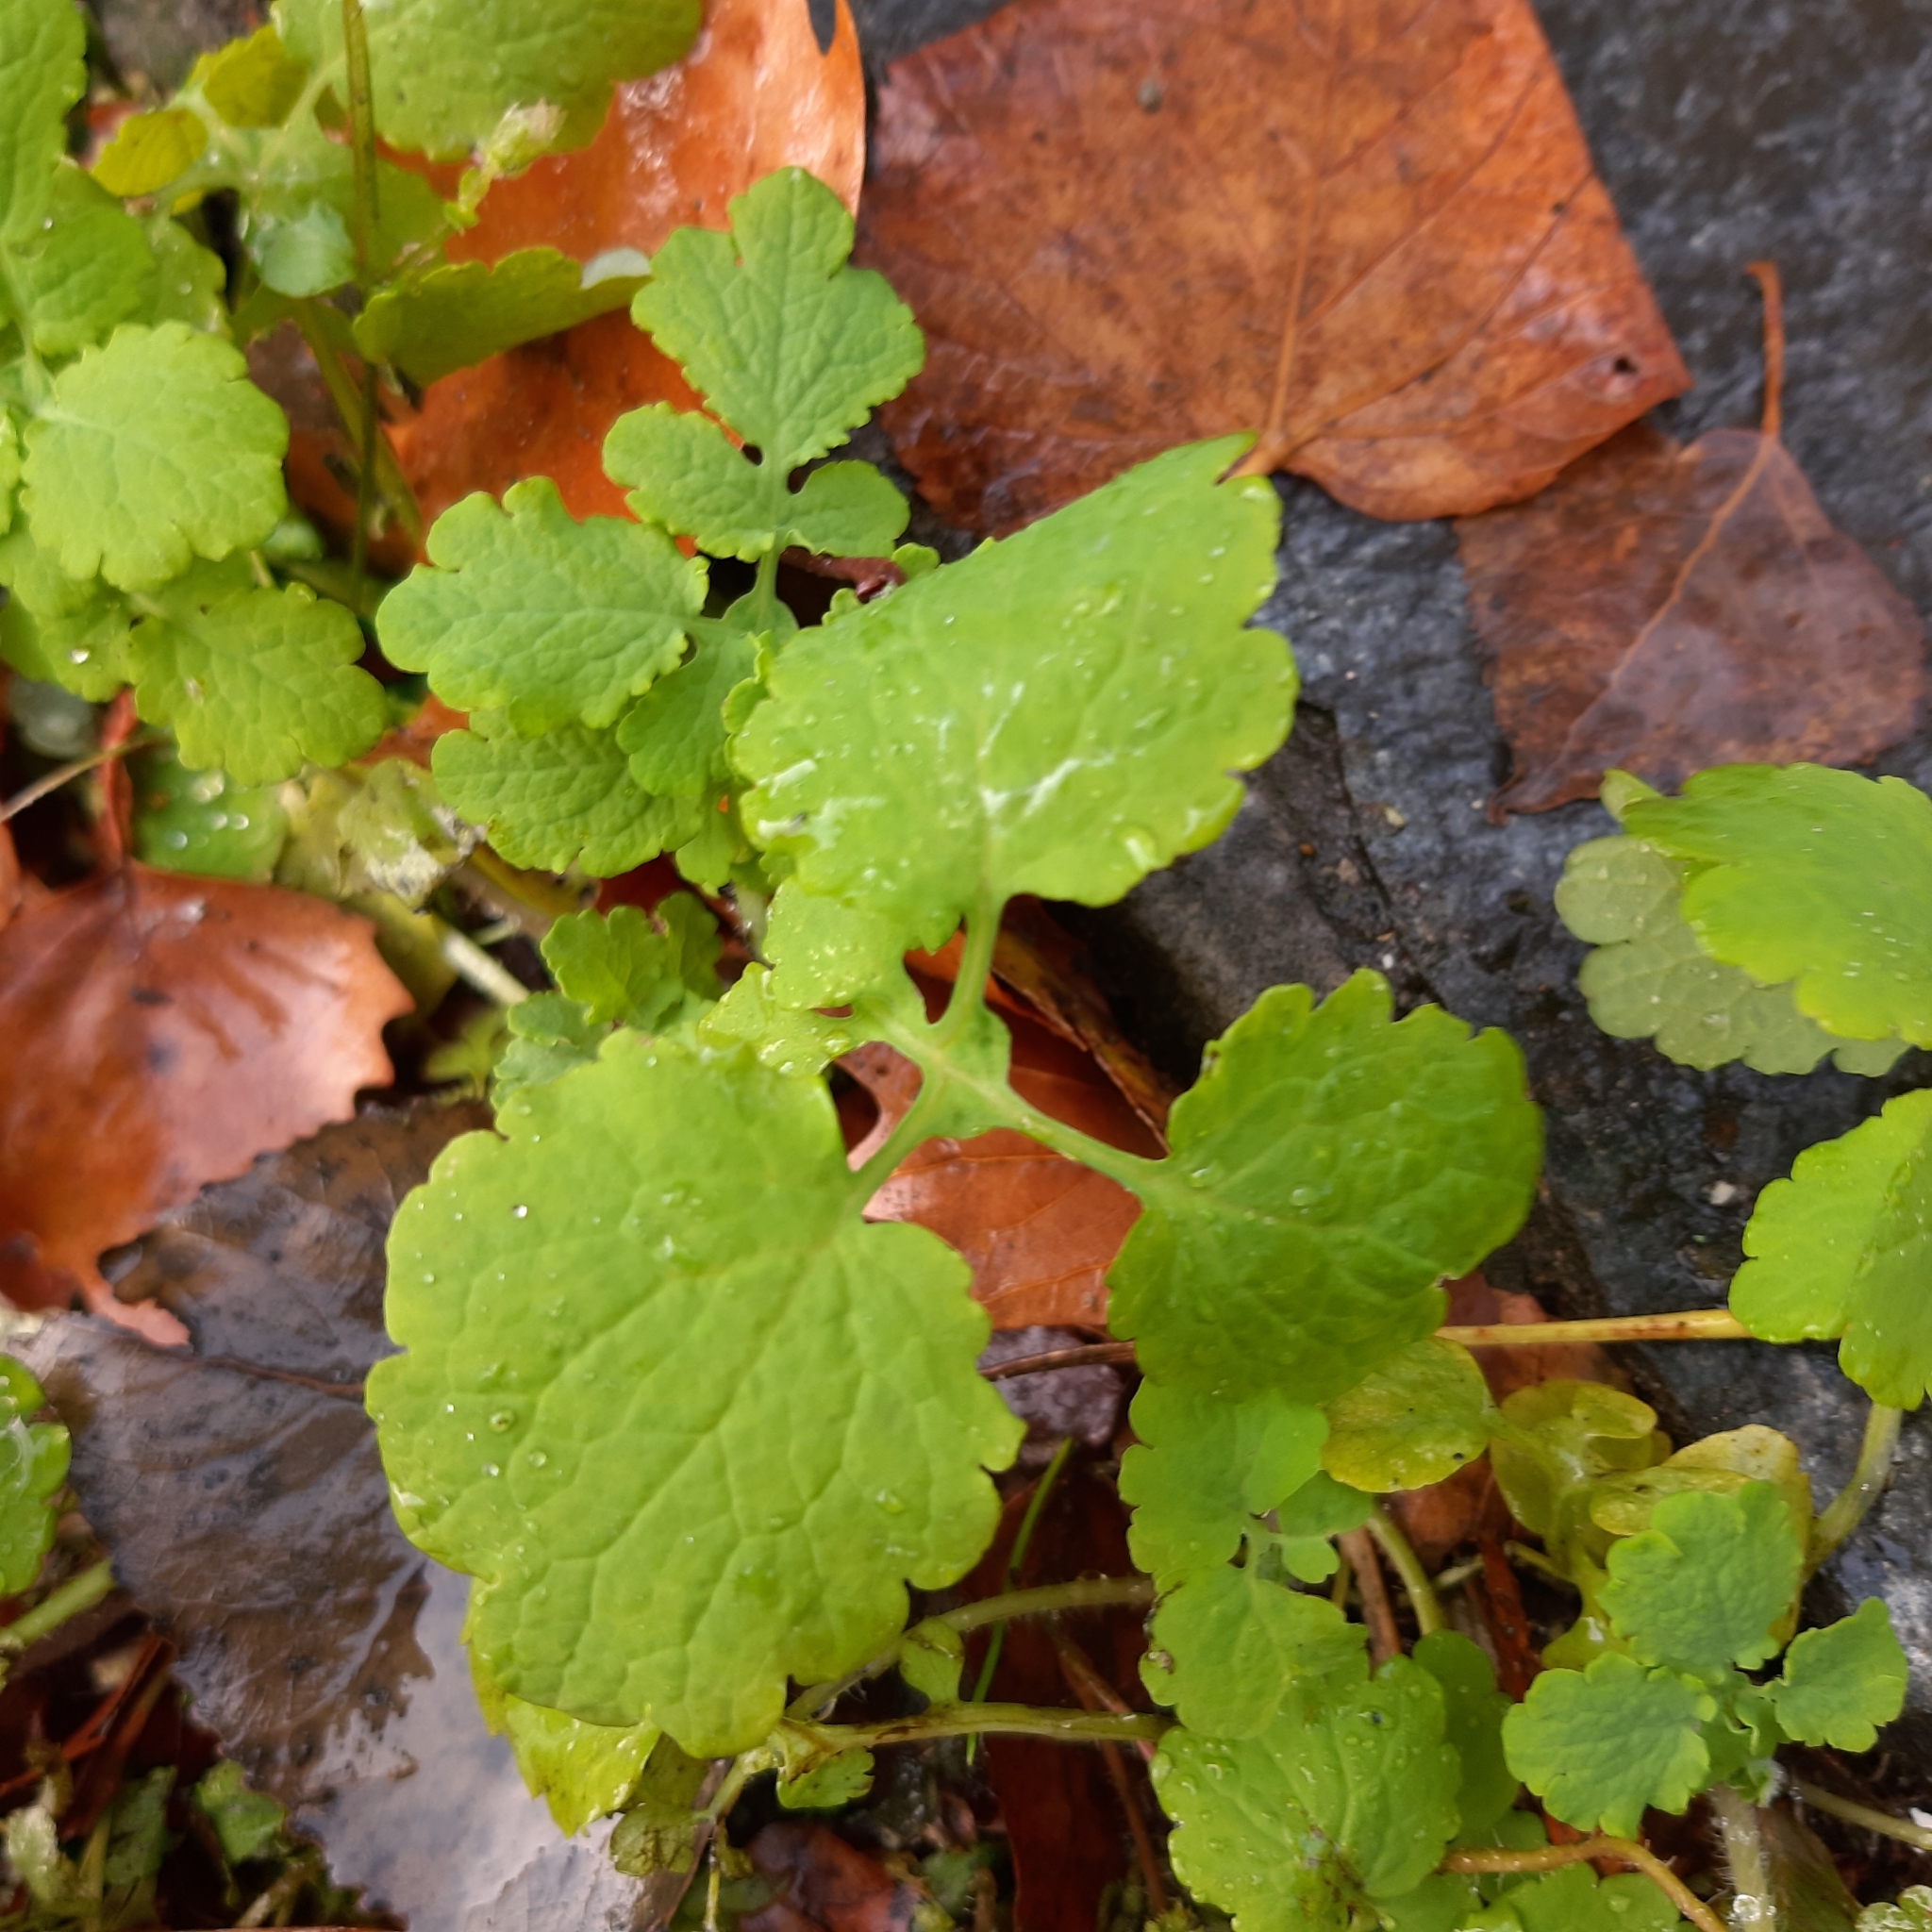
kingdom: Plantae
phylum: Tracheophyta
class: Magnoliopsida
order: Ranunculales
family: Papaveraceae
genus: Chelidonium
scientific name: Chelidonium majus
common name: Greater celandine
